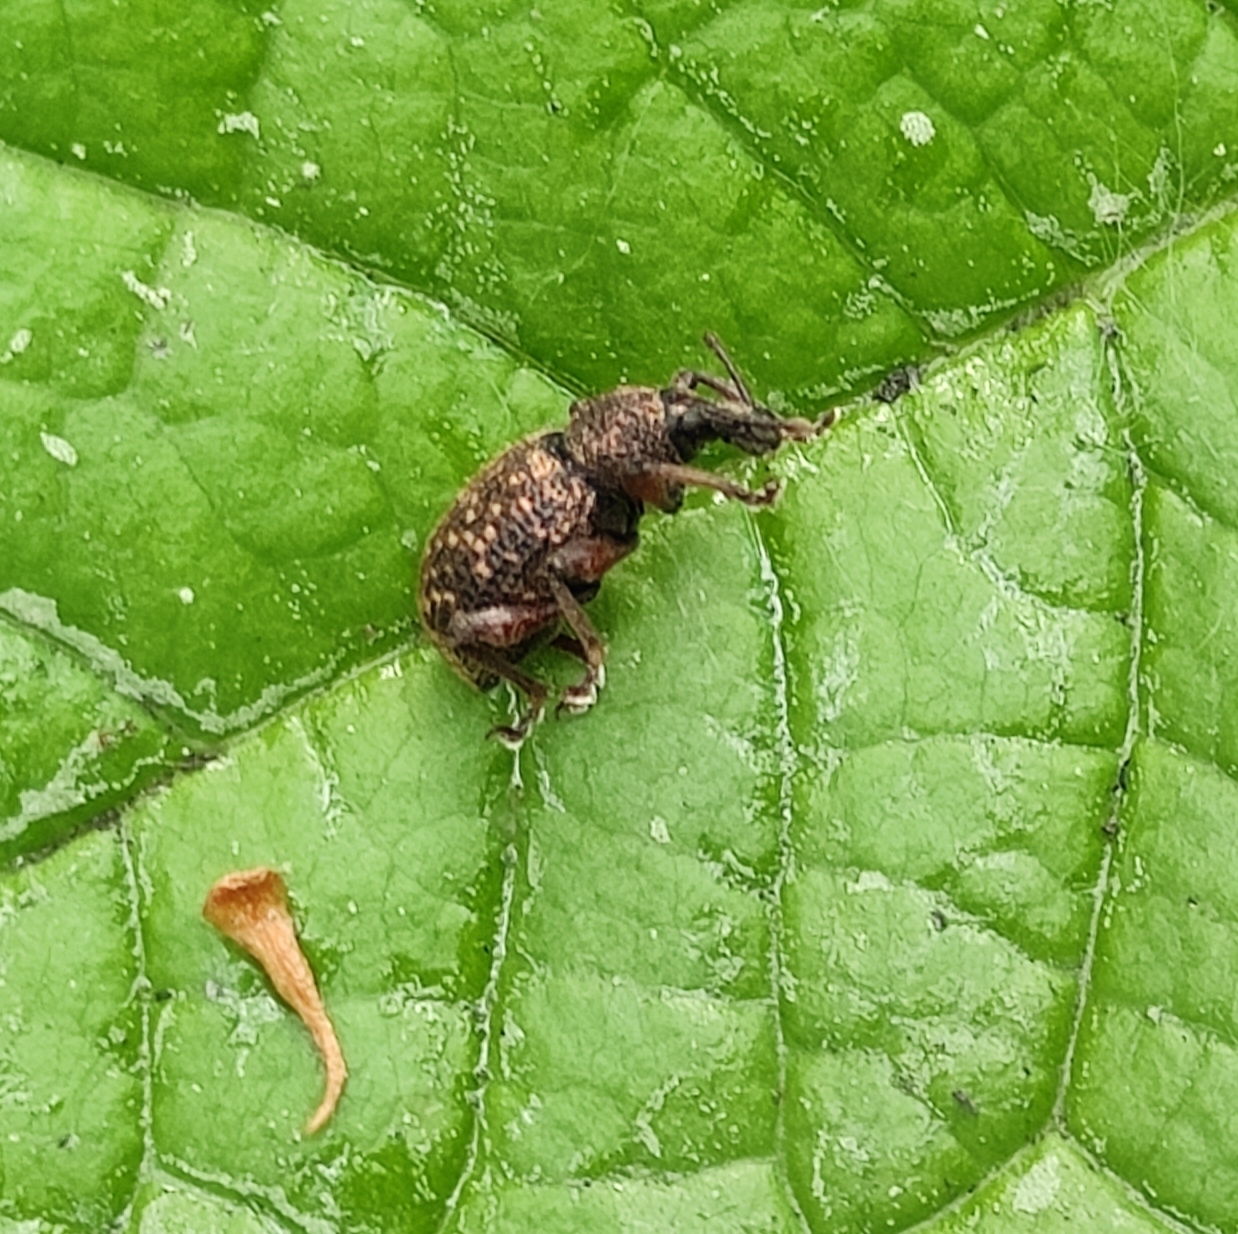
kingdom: Animalia
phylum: Arthropoda
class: Insecta
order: Coleoptera
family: Curculionidae
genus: Otiorhynchus
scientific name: Otiorhynchus grandineus
